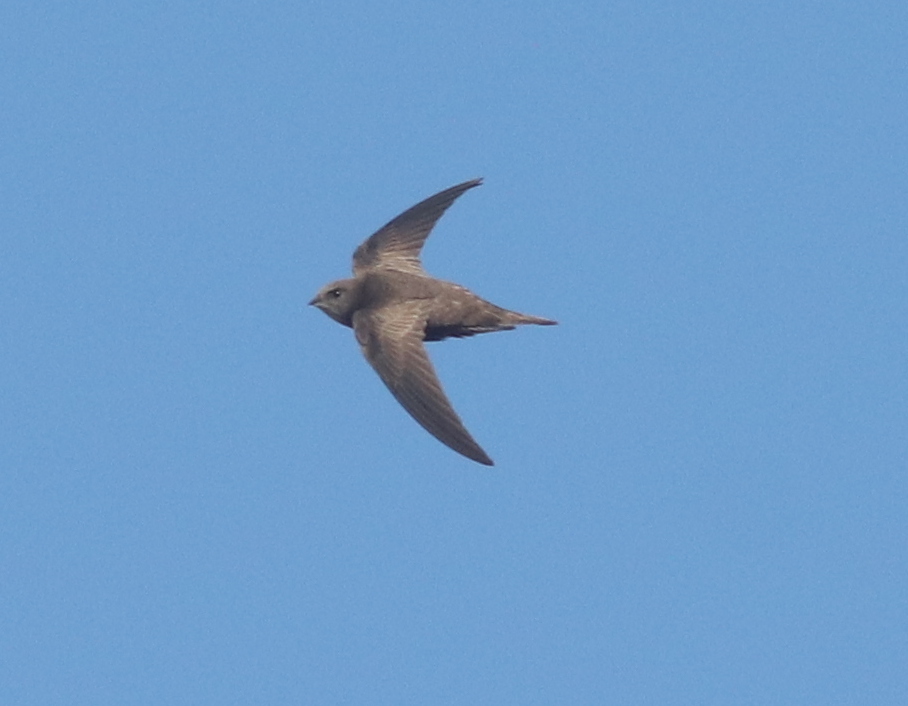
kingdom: Animalia
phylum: Chordata
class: Aves
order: Apodiformes
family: Apodidae
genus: Apus
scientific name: Apus unicolor
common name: Plain swift
